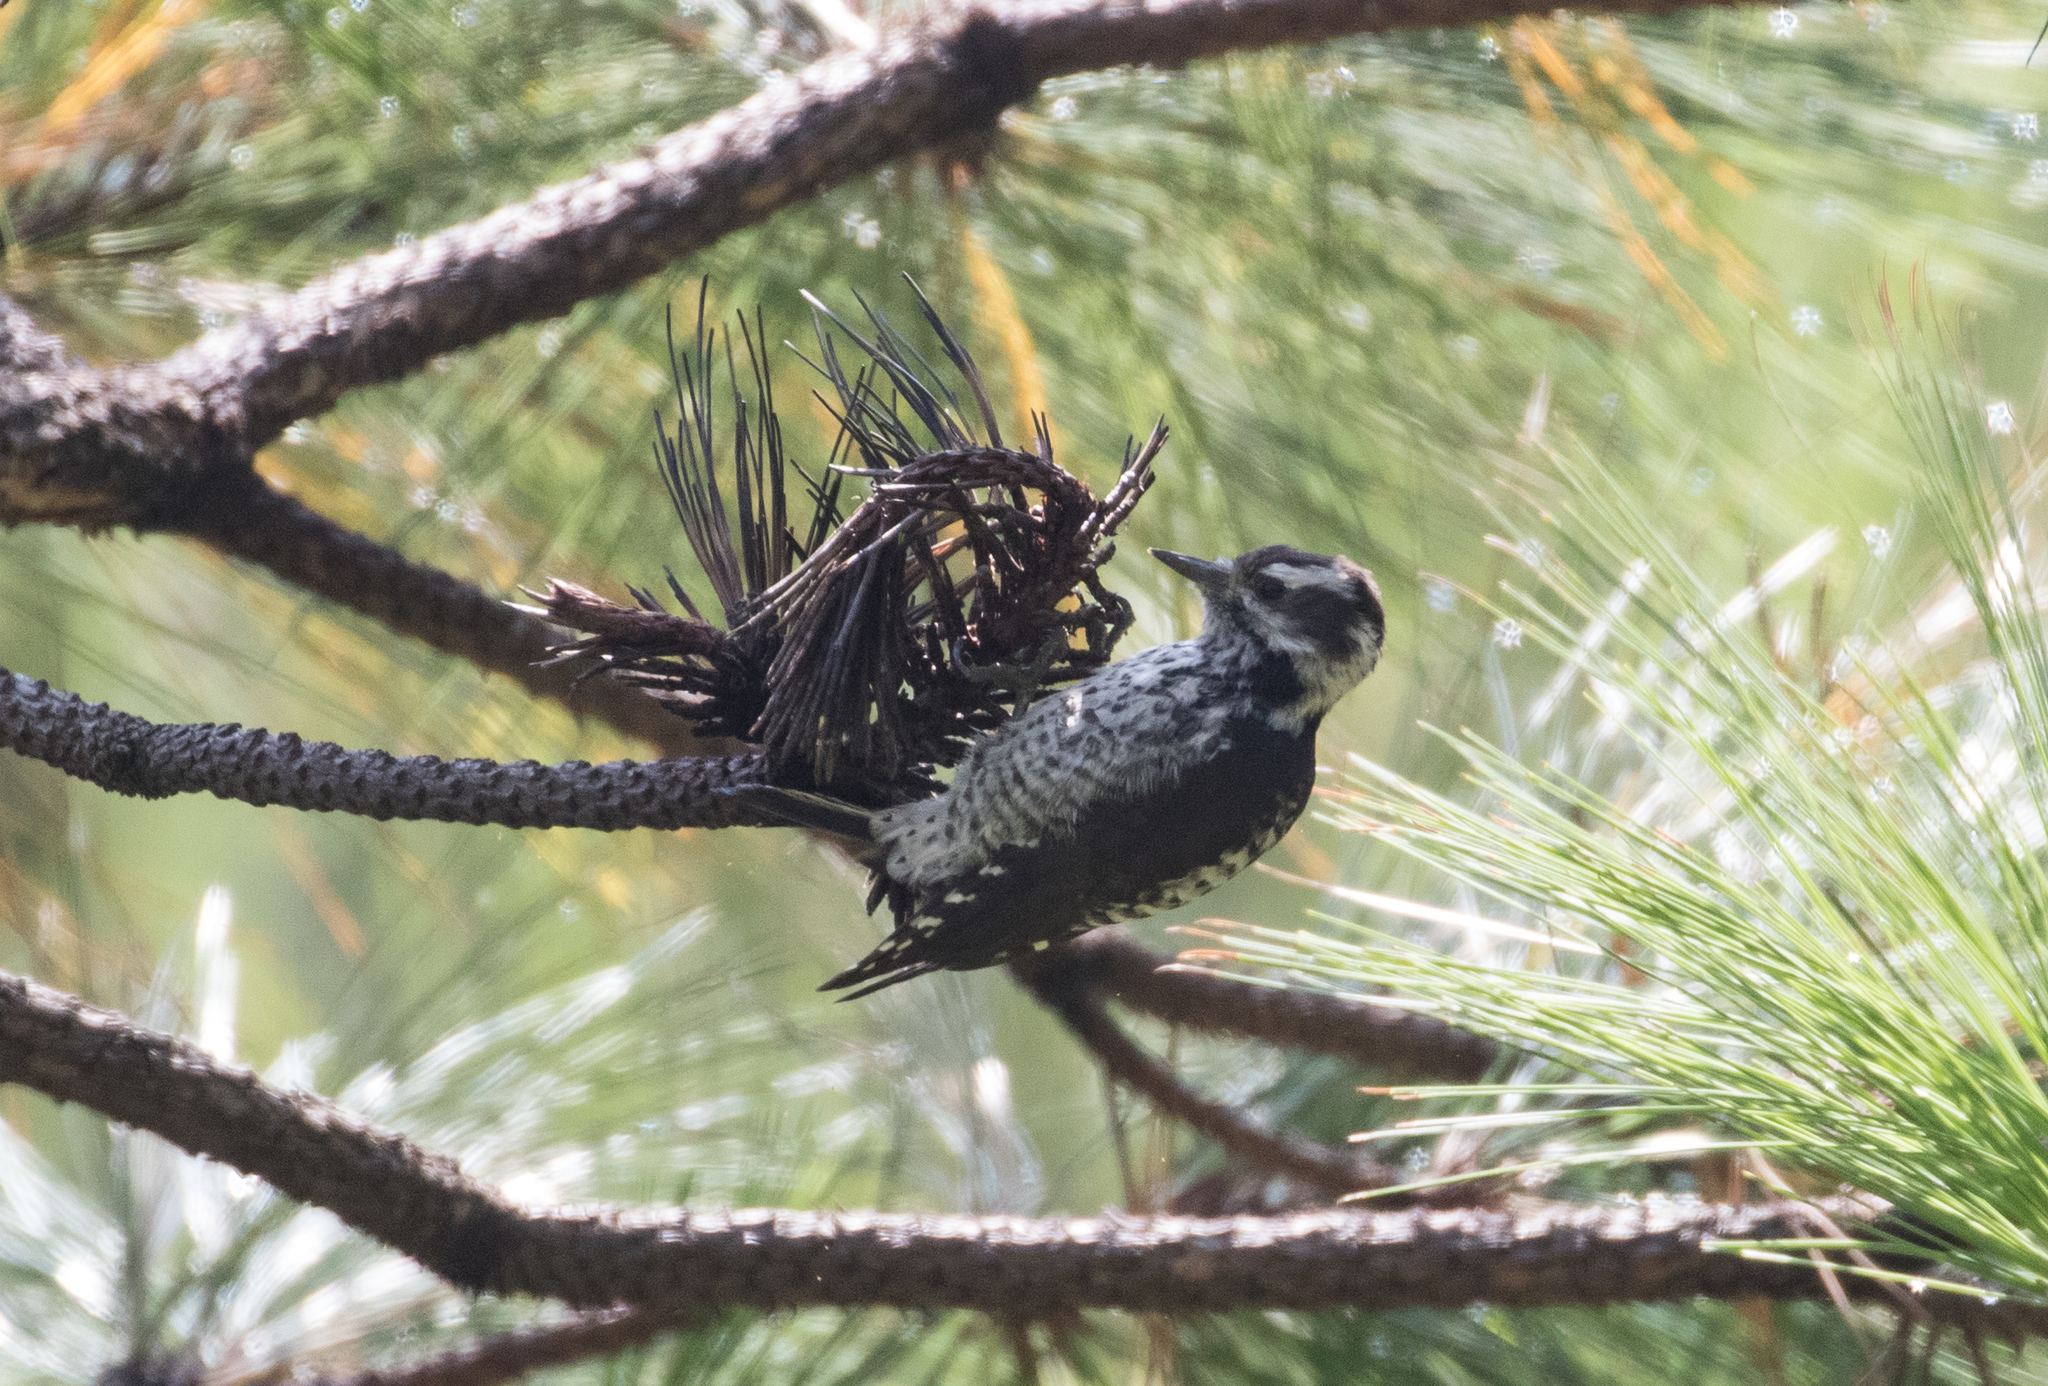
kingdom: Animalia
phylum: Chordata
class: Aves
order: Piciformes
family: Picidae
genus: Leuconotopicus
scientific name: Leuconotopicus stricklandi
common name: Strickland's woodpecker
